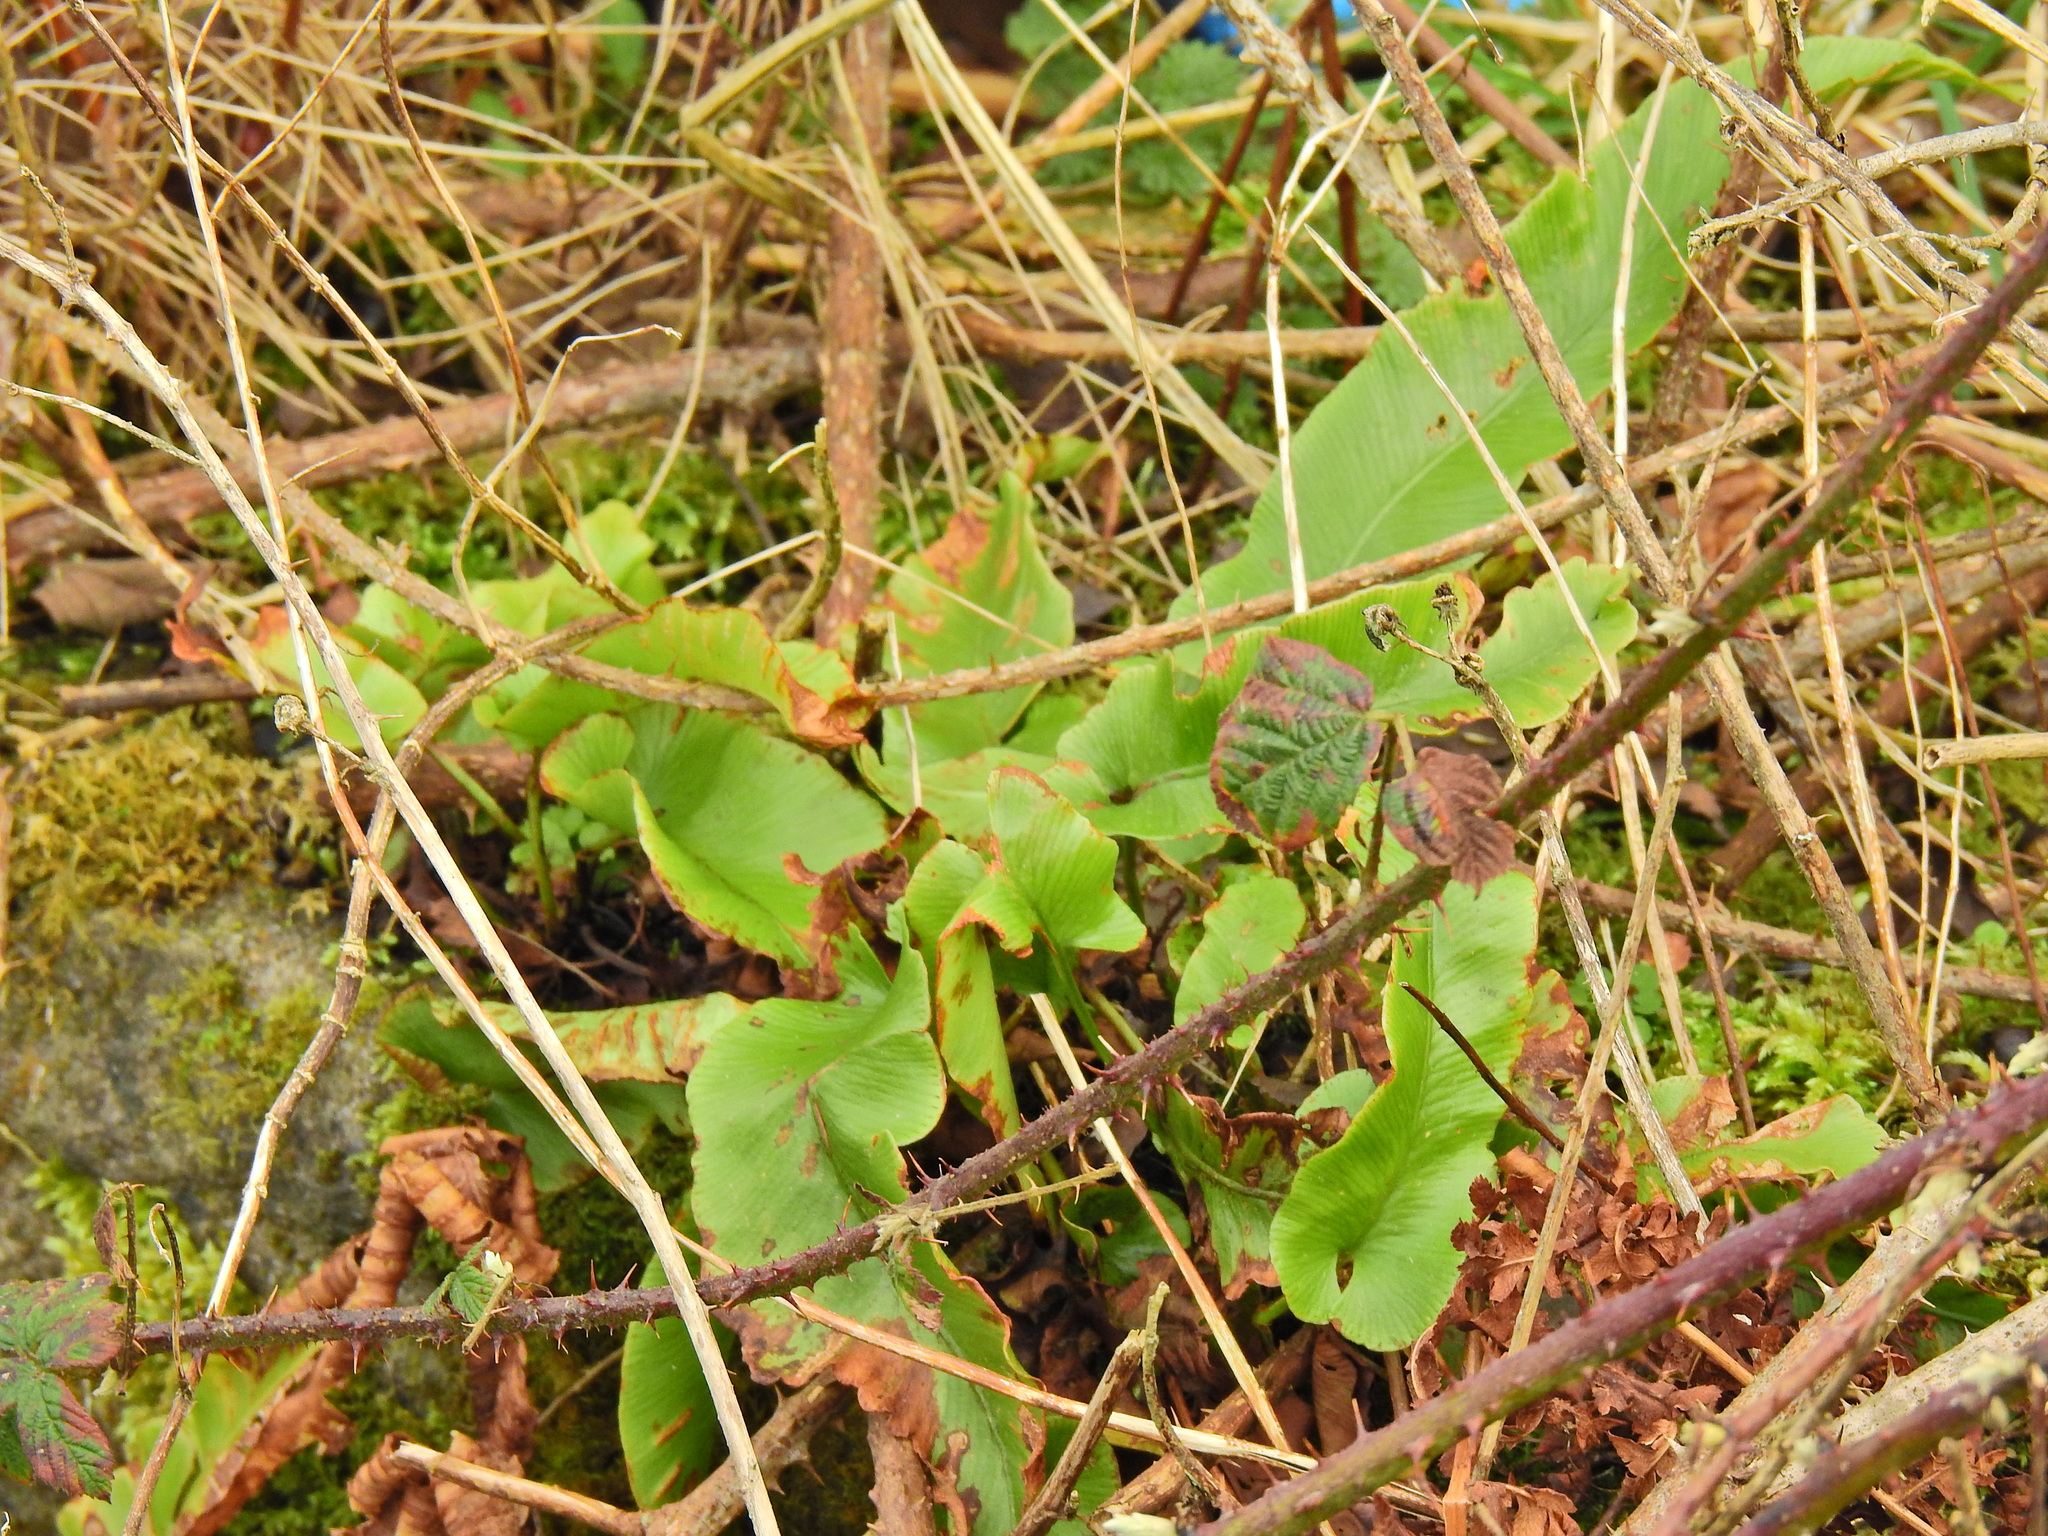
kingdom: Plantae
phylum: Tracheophyta
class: Polypodiopsida
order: Polypodiales
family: Aspleniaceae
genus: Asplenium
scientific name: Asplenium scolopendrium
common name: Hart's-tongue fern
